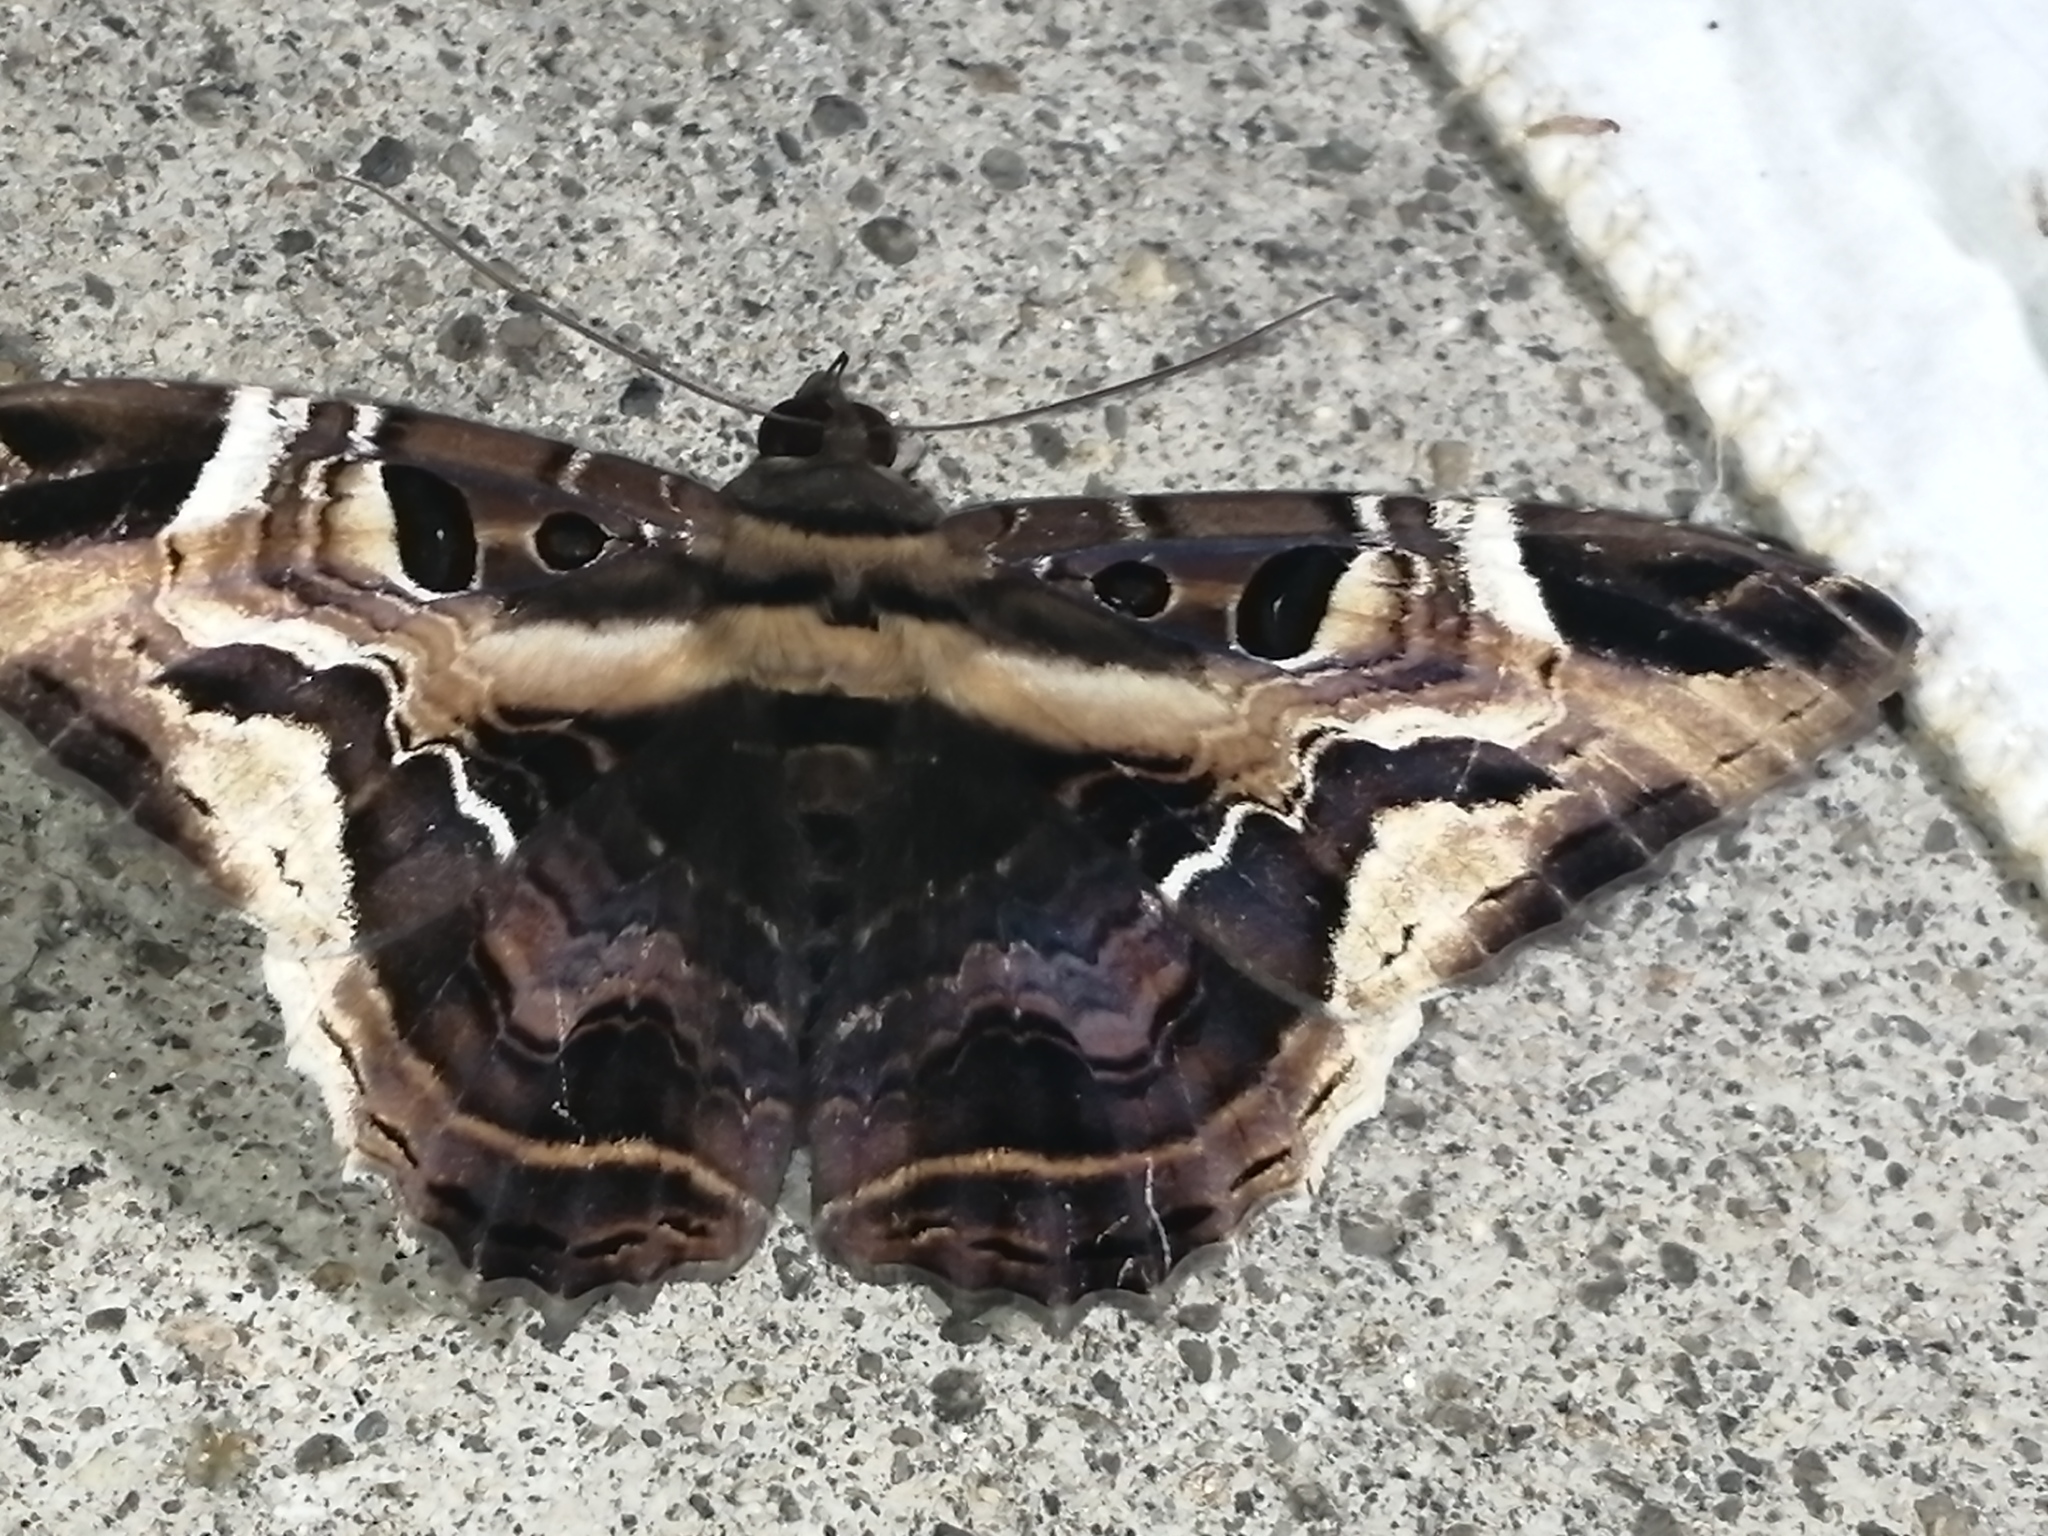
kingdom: Animalia
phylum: Arthropoda
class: Insecta
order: Lepidoptera
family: Erebidae
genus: Feigeria
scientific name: Feigeria herilia
